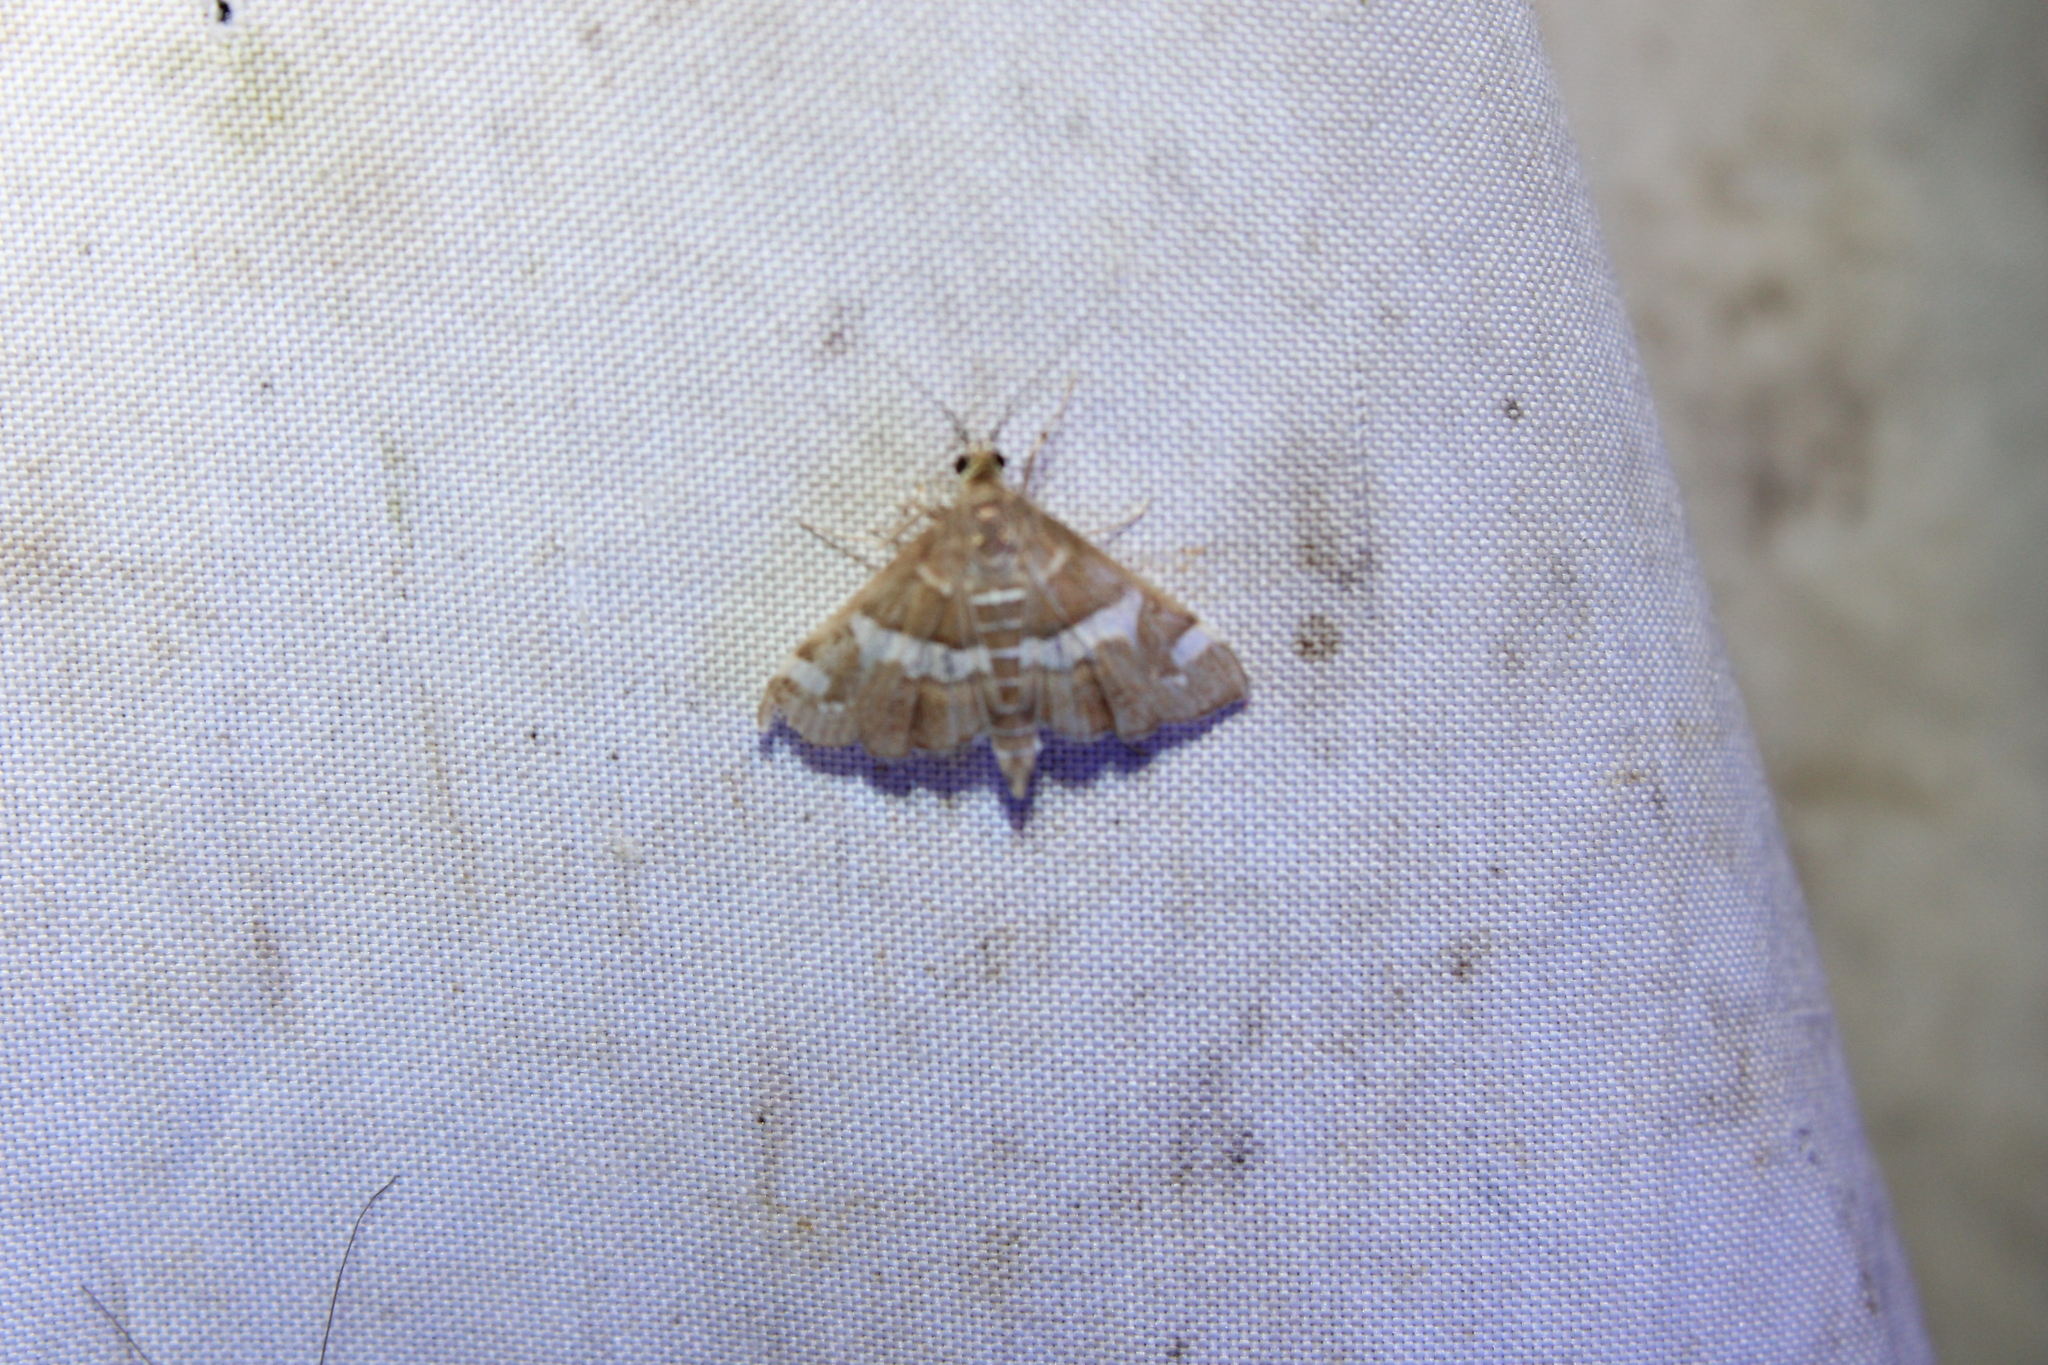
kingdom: Animalia
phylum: Arthropoda
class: Insecta
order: Lepidoptera
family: Crambidae
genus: Spoladea
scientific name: Spoladea recurvalis
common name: Beet webworm moth
